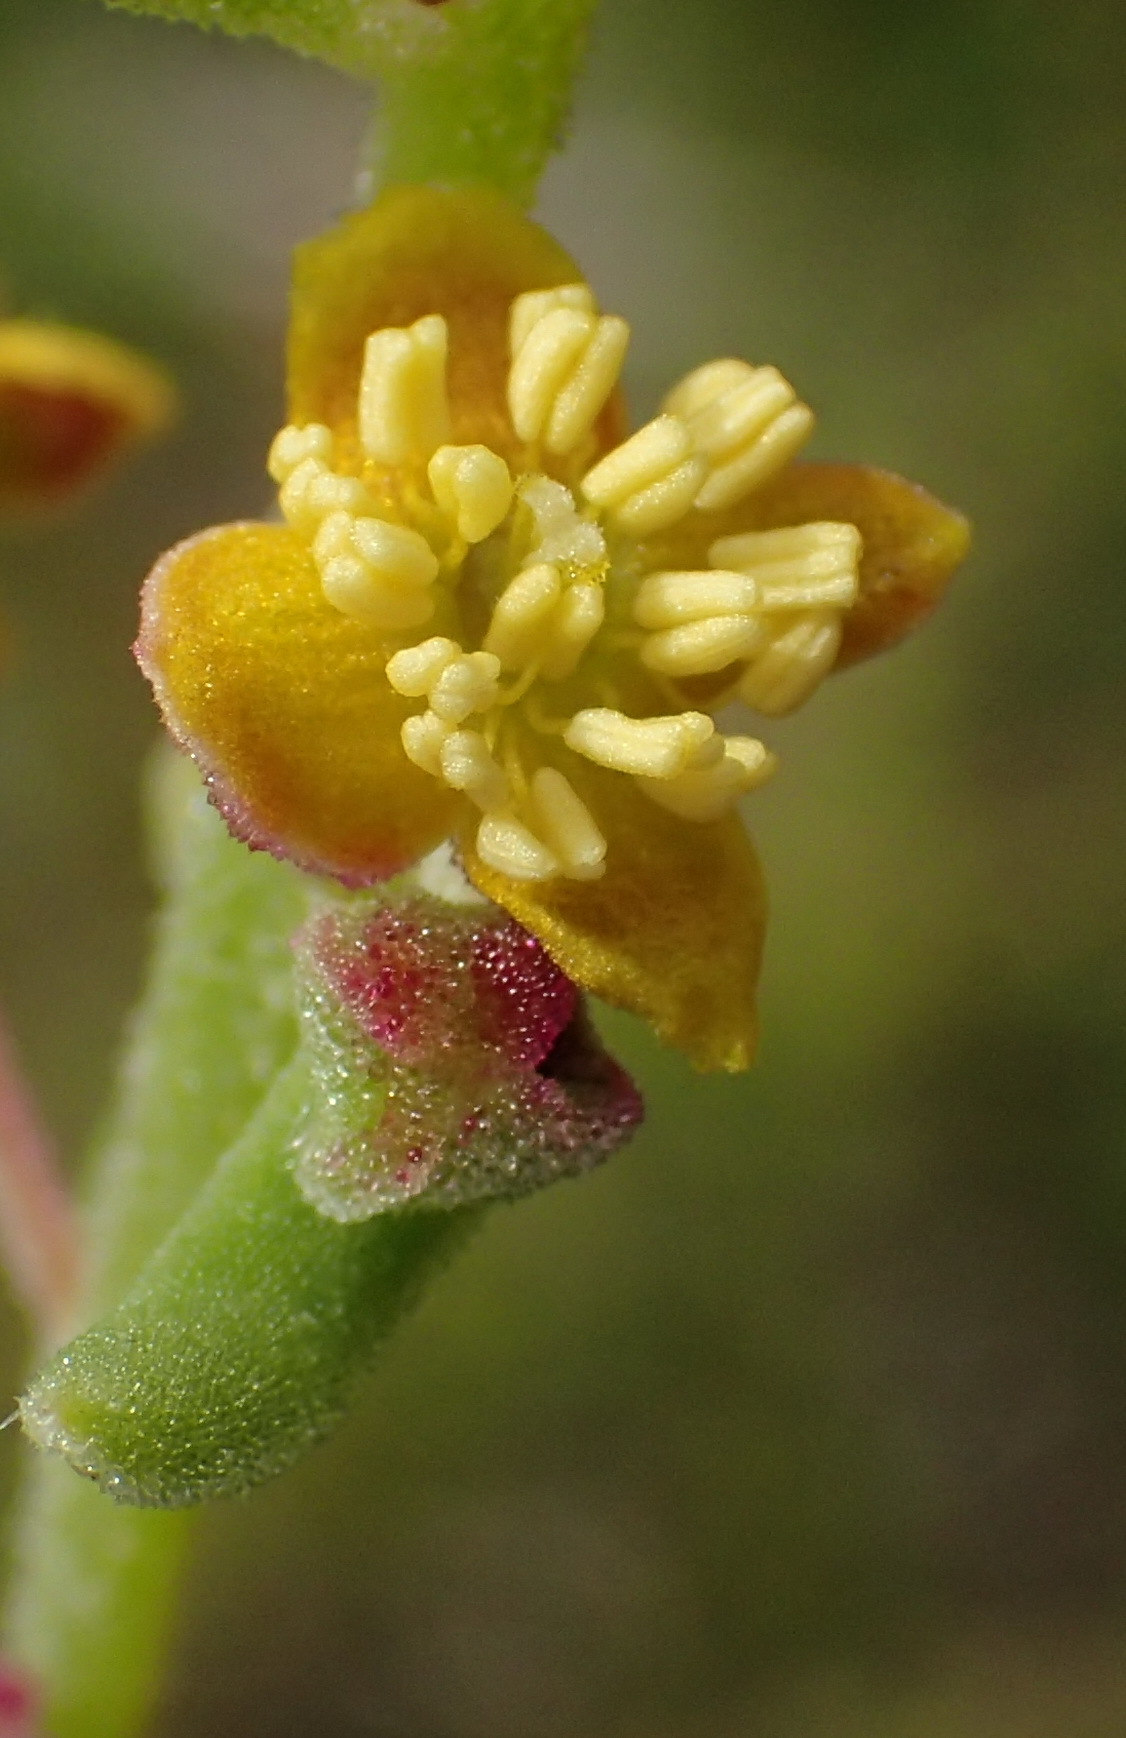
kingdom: Plantae
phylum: Tracheophyta
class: Magnoliopsida
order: Caryophyllales
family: Aizoaceae
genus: Tetragonia
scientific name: Tetragonia fruticosa
